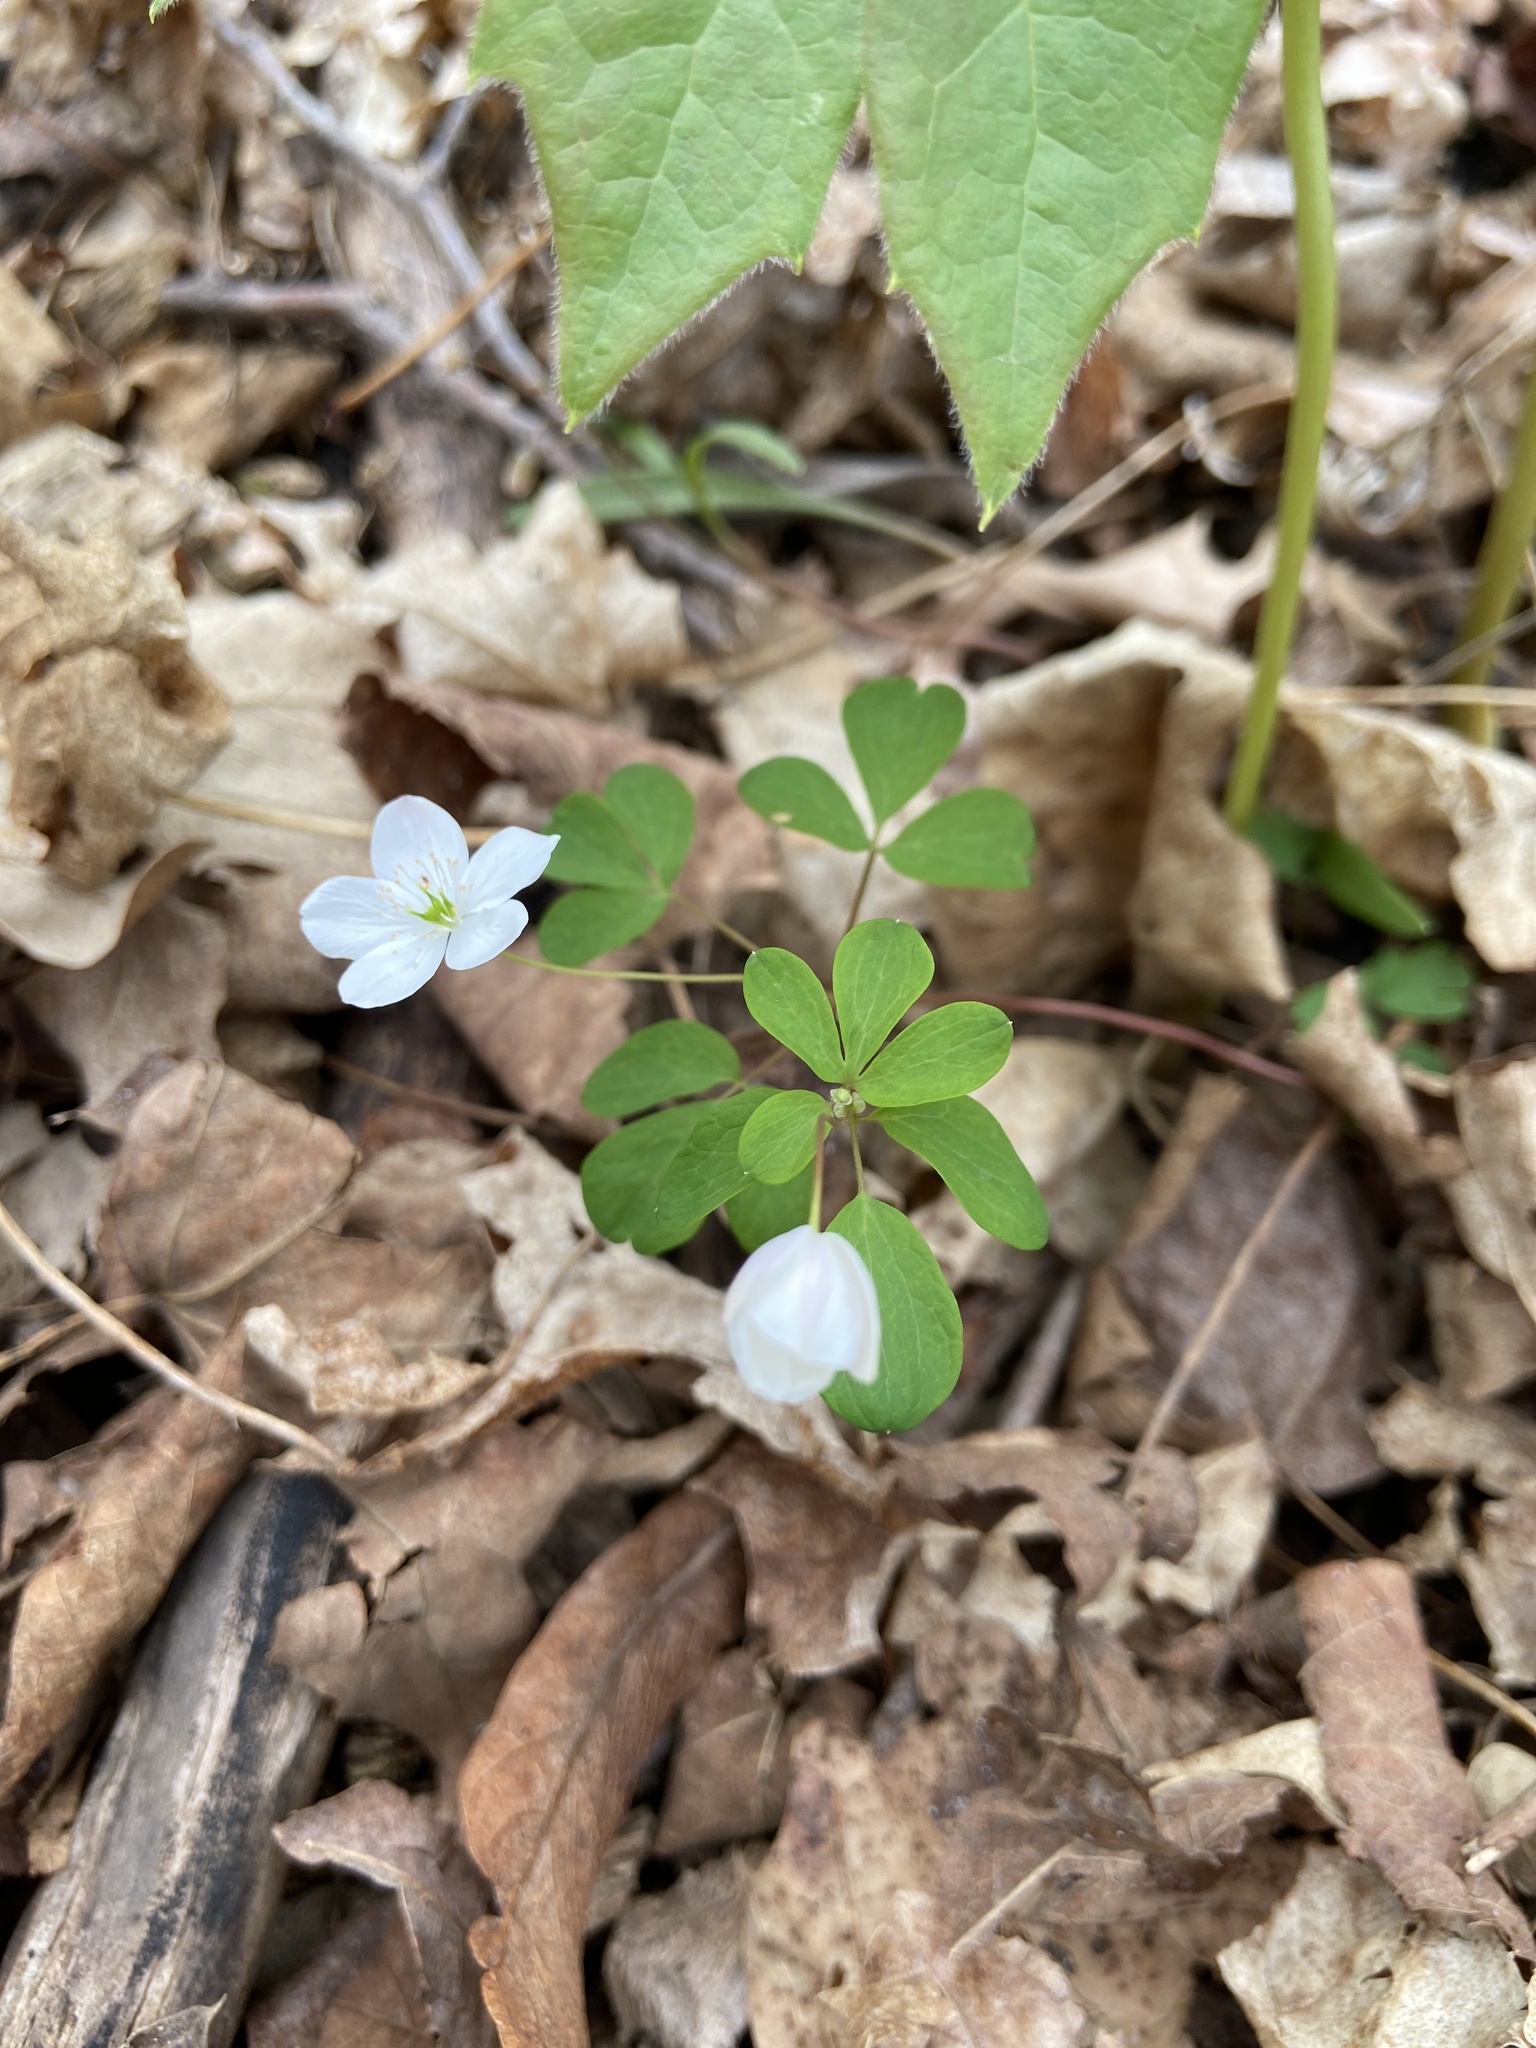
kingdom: Plantae
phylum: Tracheophyta
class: Magnoliopsida
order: Ranunculales
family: Ranunculaceae
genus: Enemion
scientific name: Enemion biternatum
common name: Eastern false rue-anemone
